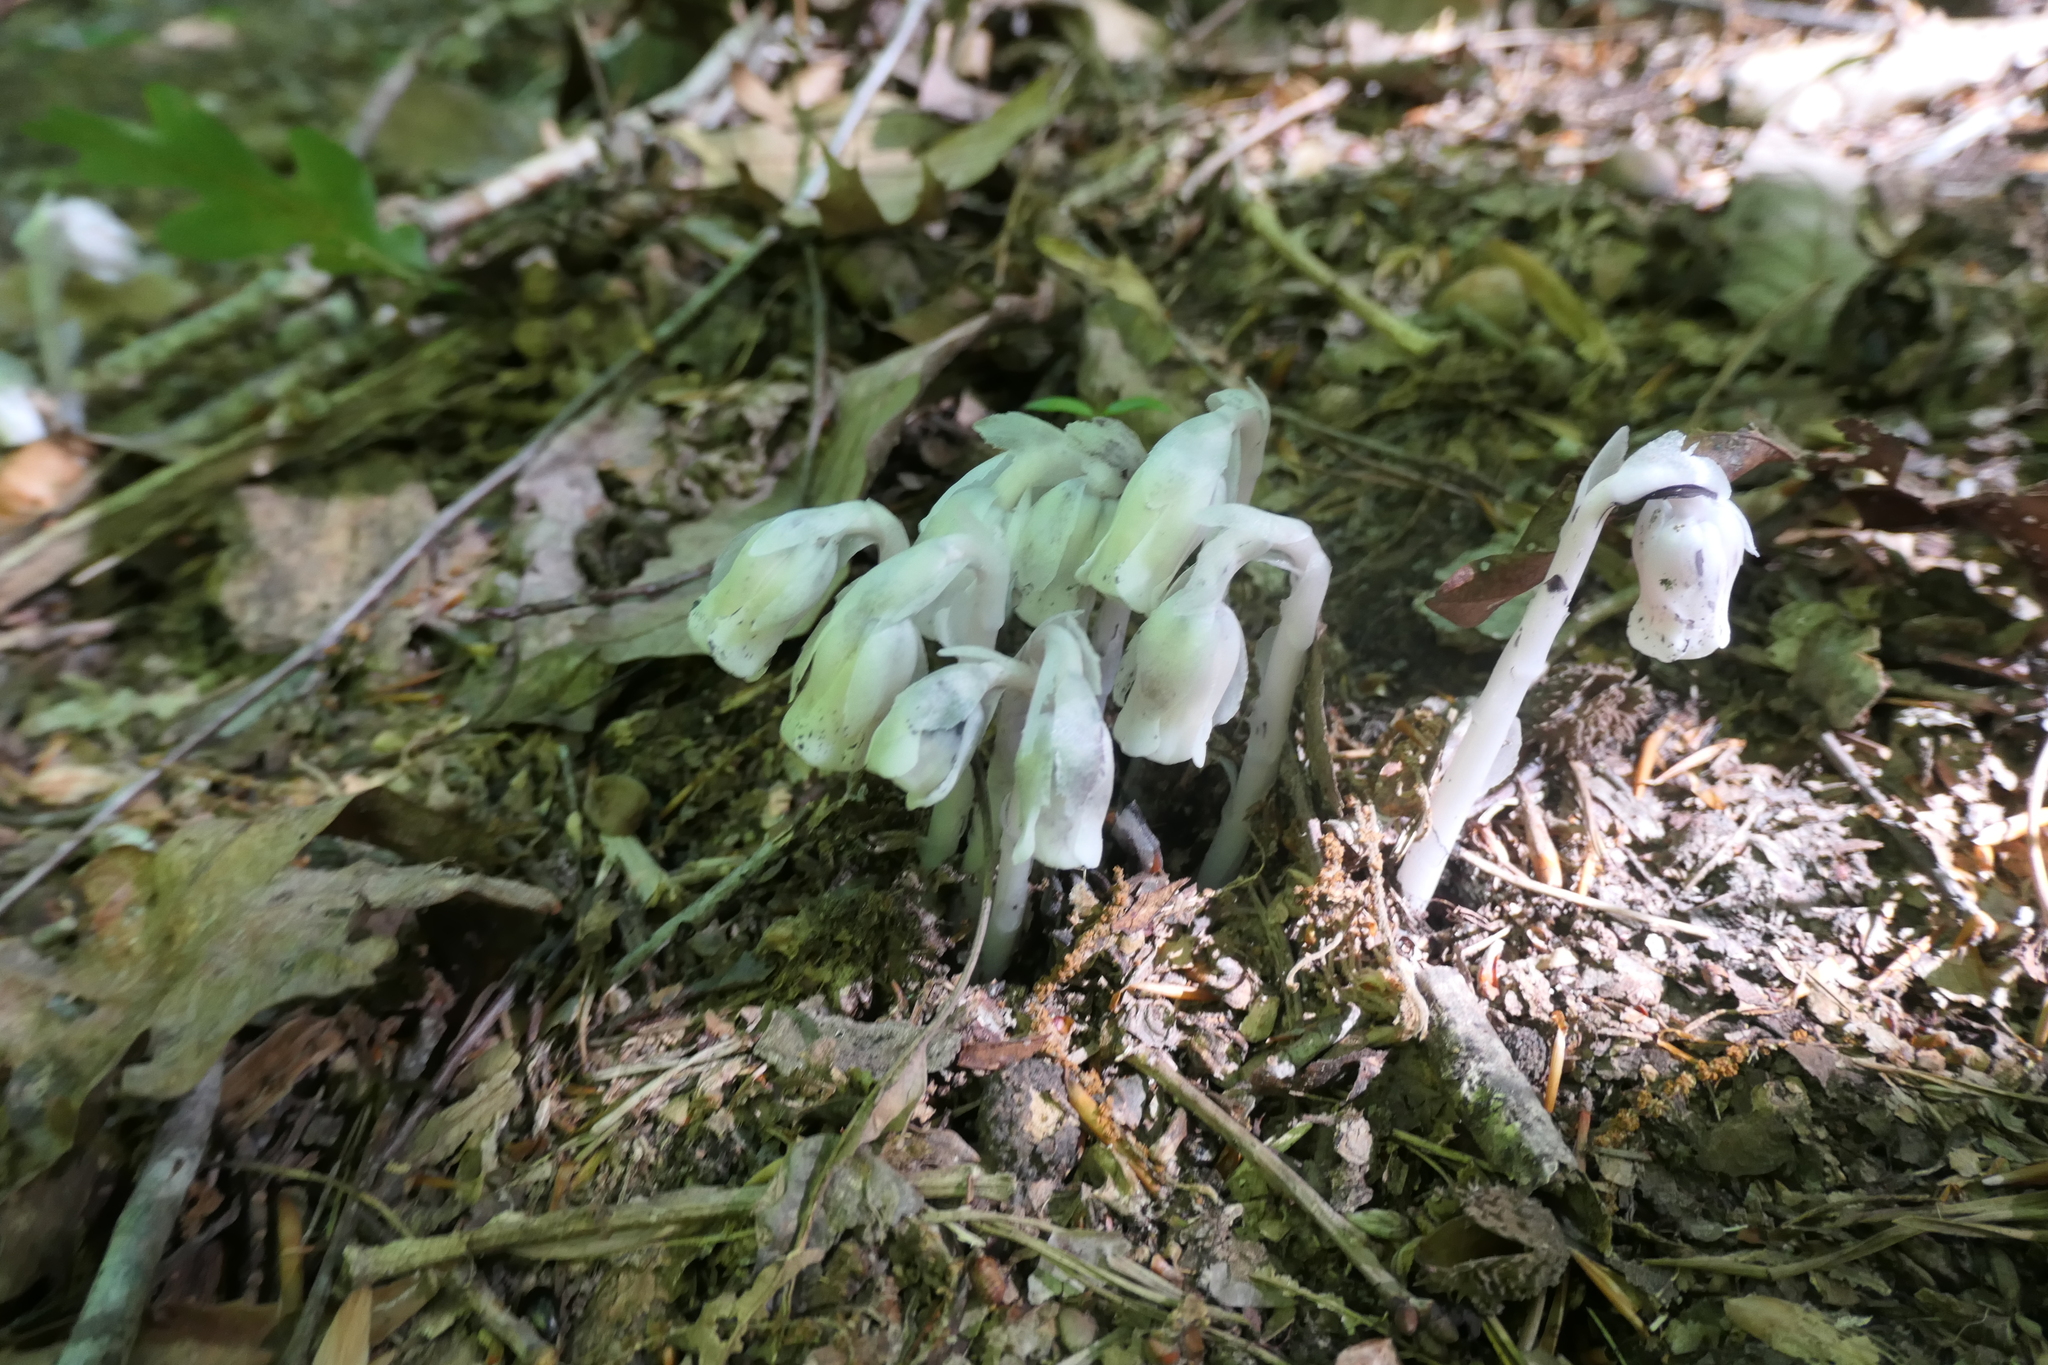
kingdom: Plantae
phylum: Tracheophyta
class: Magnoliopsida
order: Ericales
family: Ericaceae
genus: Monotropa
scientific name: Monotropa uniflora
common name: Convulsion root
